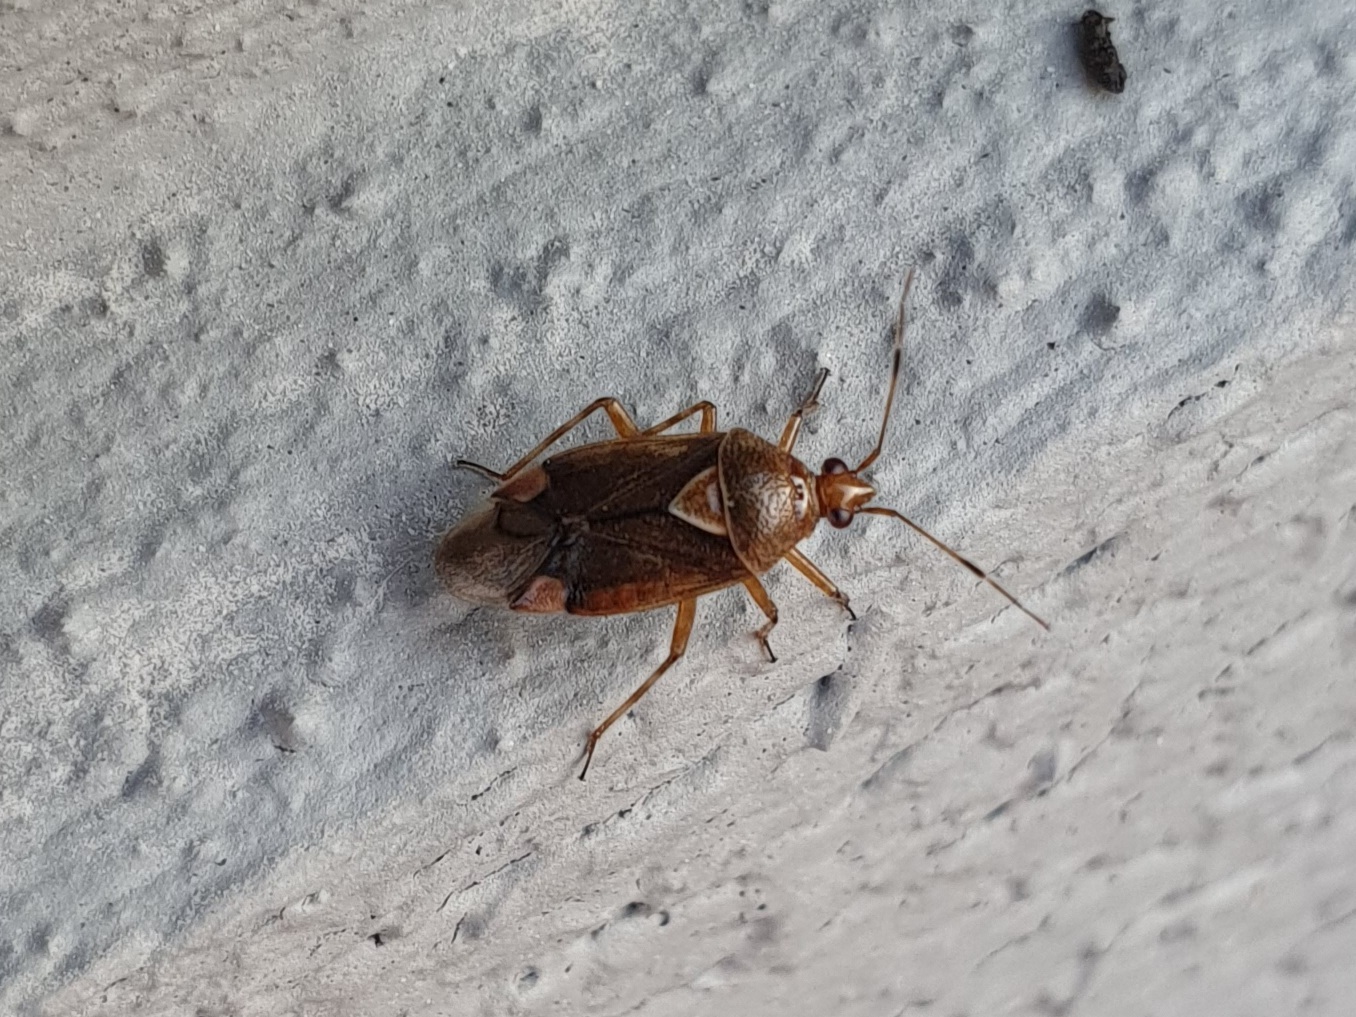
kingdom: Animalia
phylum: Arthropoda
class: Insecta
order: Hemiptera
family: Miridae
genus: Deraeocoris
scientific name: Deraeocoris flavilinea
